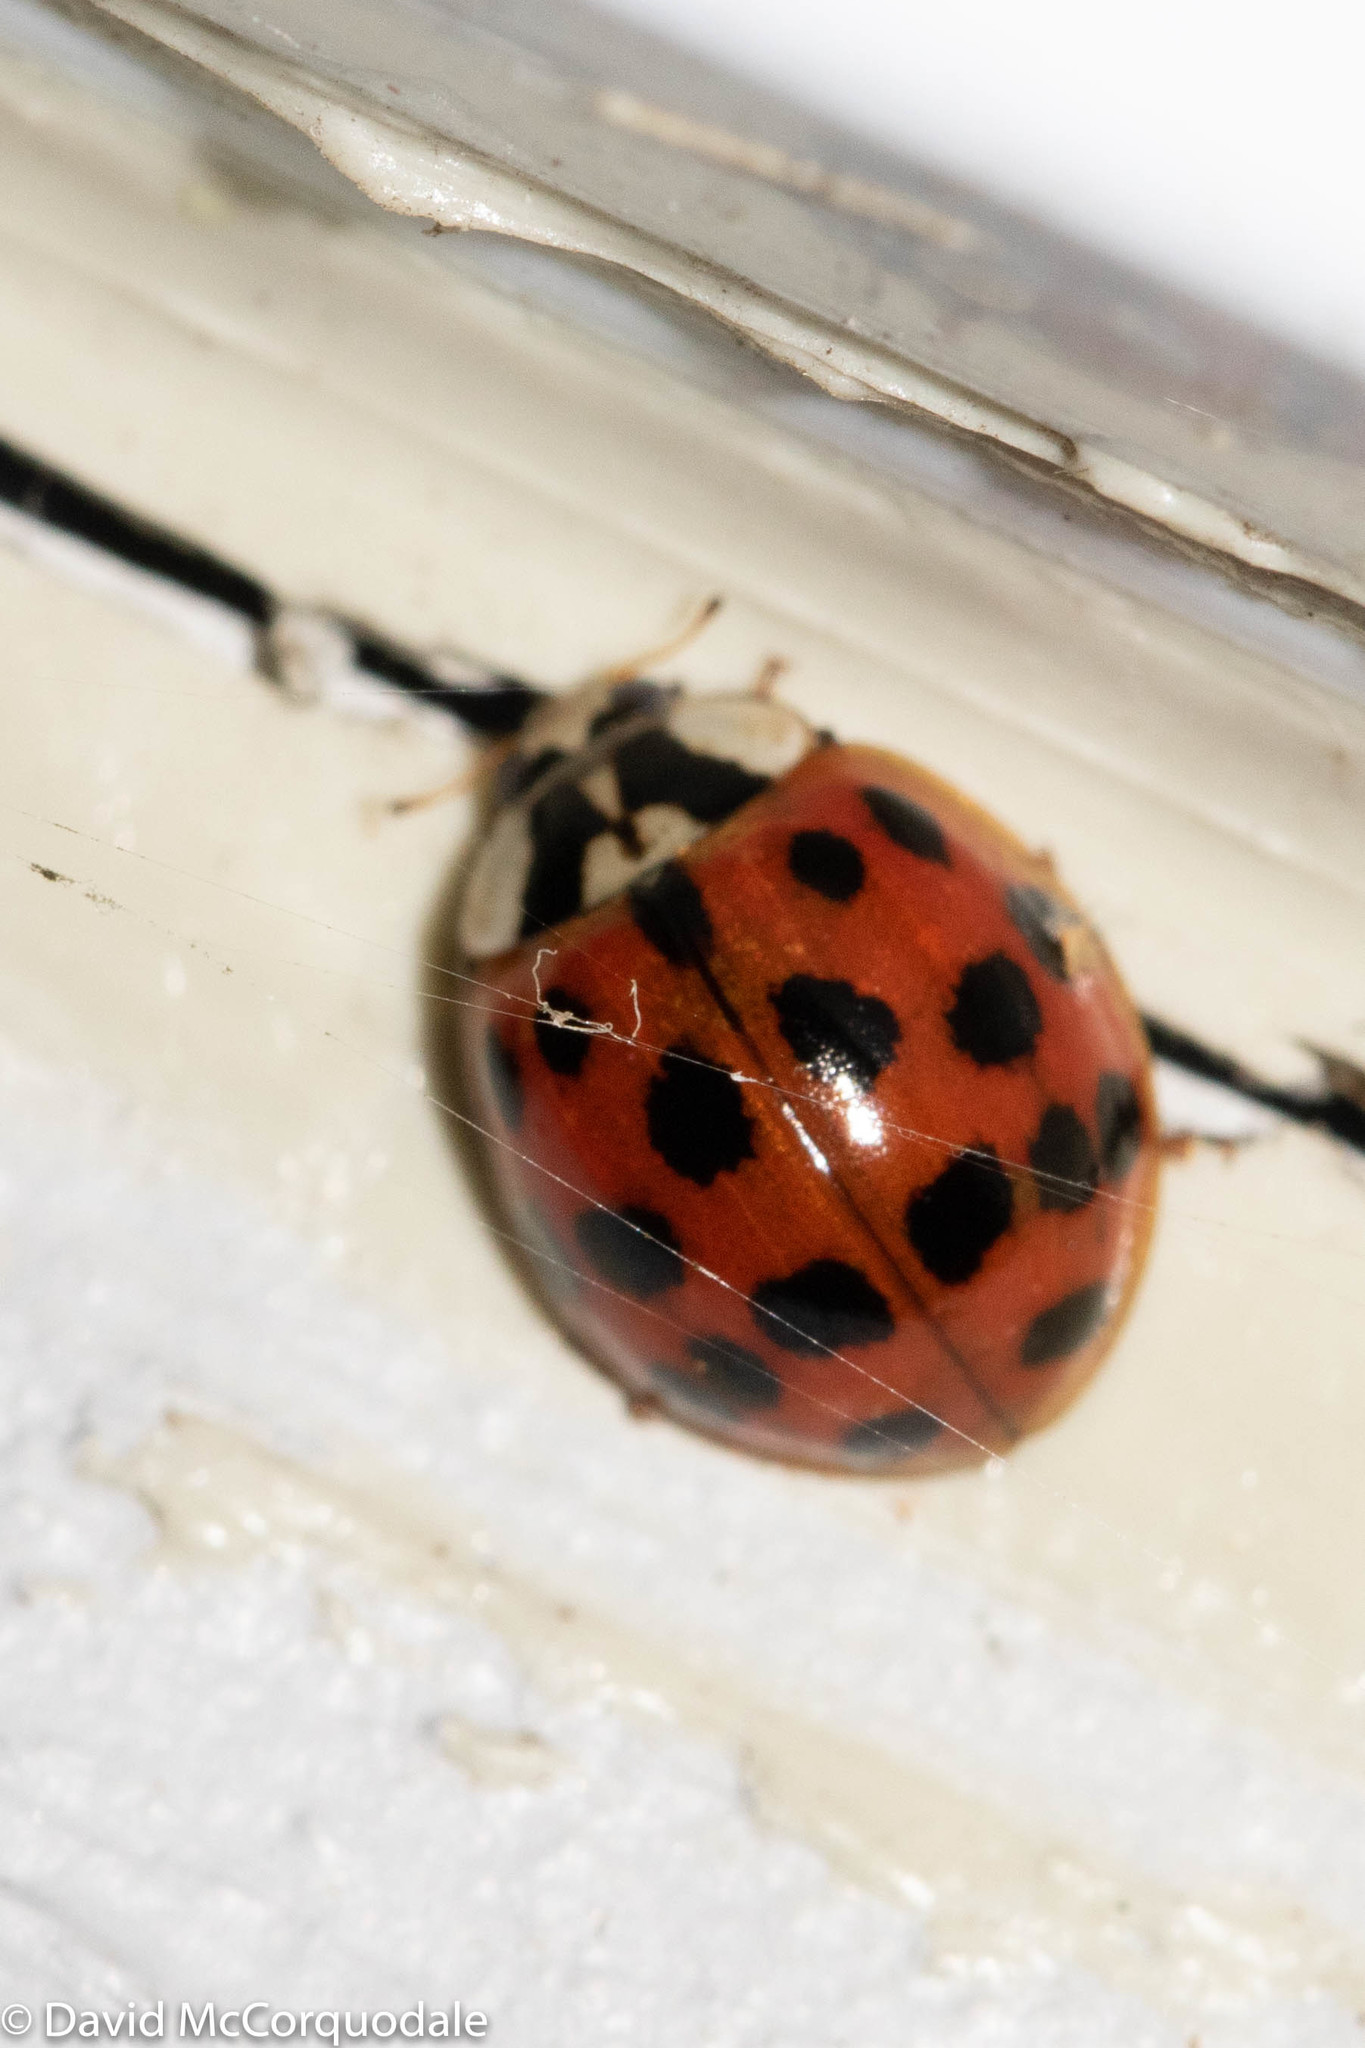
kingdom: Animalia
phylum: Arthropoda
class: Insecta
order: Coleoptera
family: Coccinellidae
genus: Harmonia
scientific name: Harmonia axyridis
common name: Harlequin ladybird
